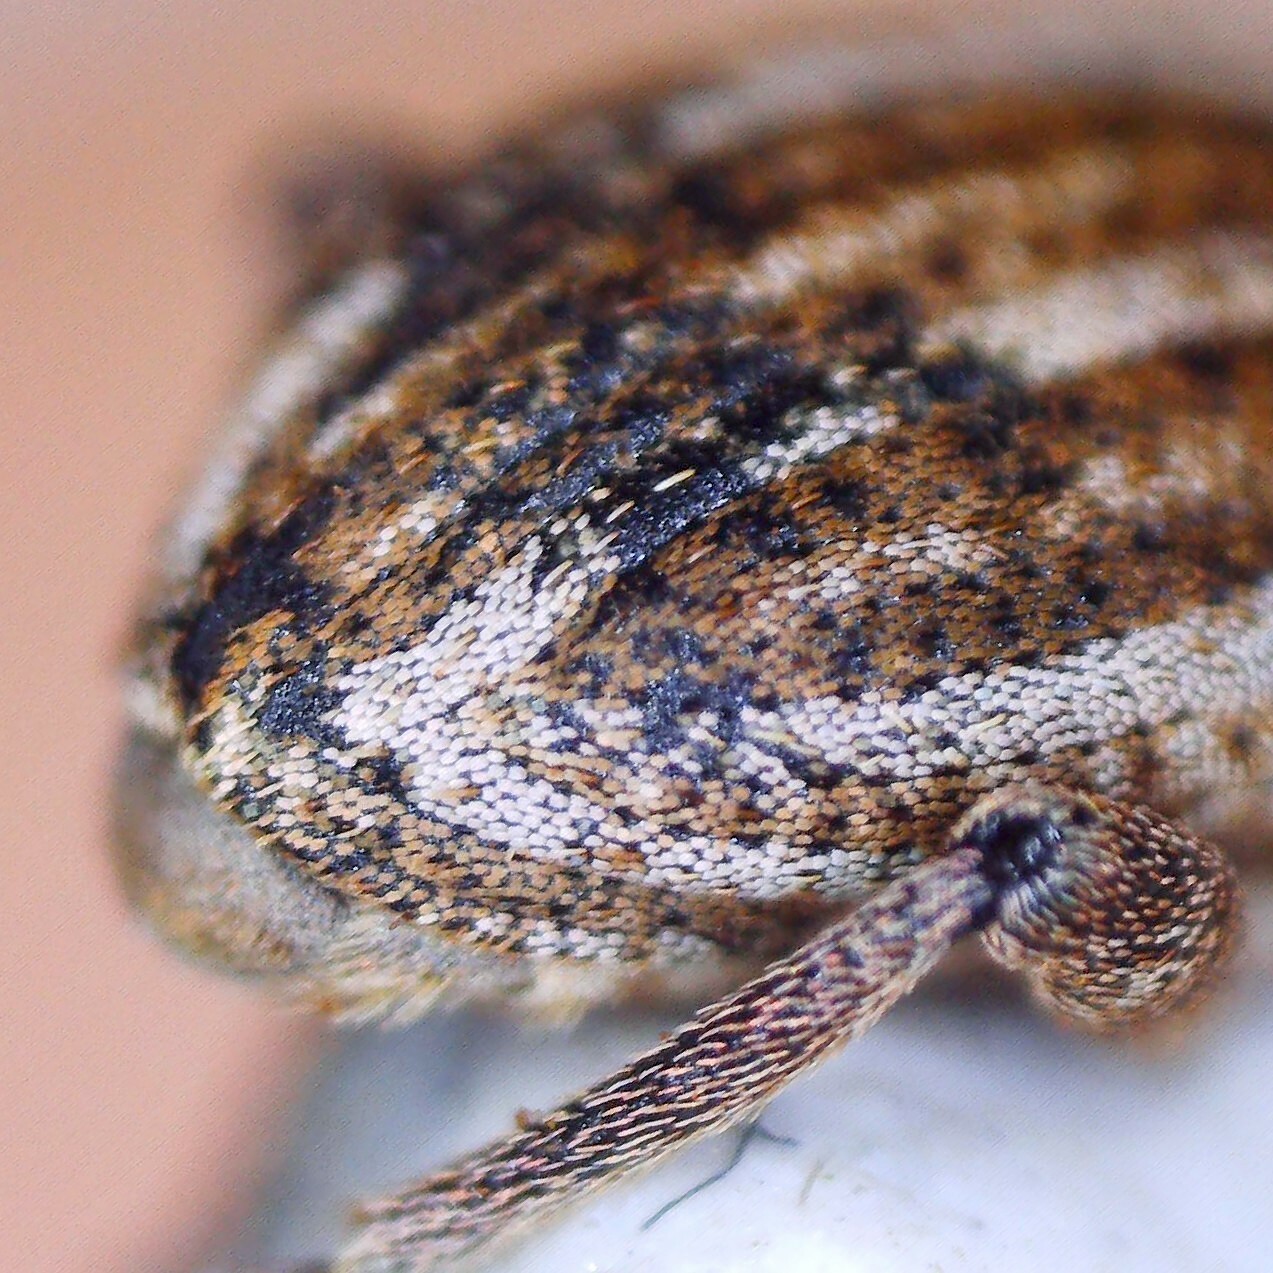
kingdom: Animalia
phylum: Arthropoda
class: Insecta
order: Coleoptera
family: Curculionidae
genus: Hypera
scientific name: Hypera conmaculata
